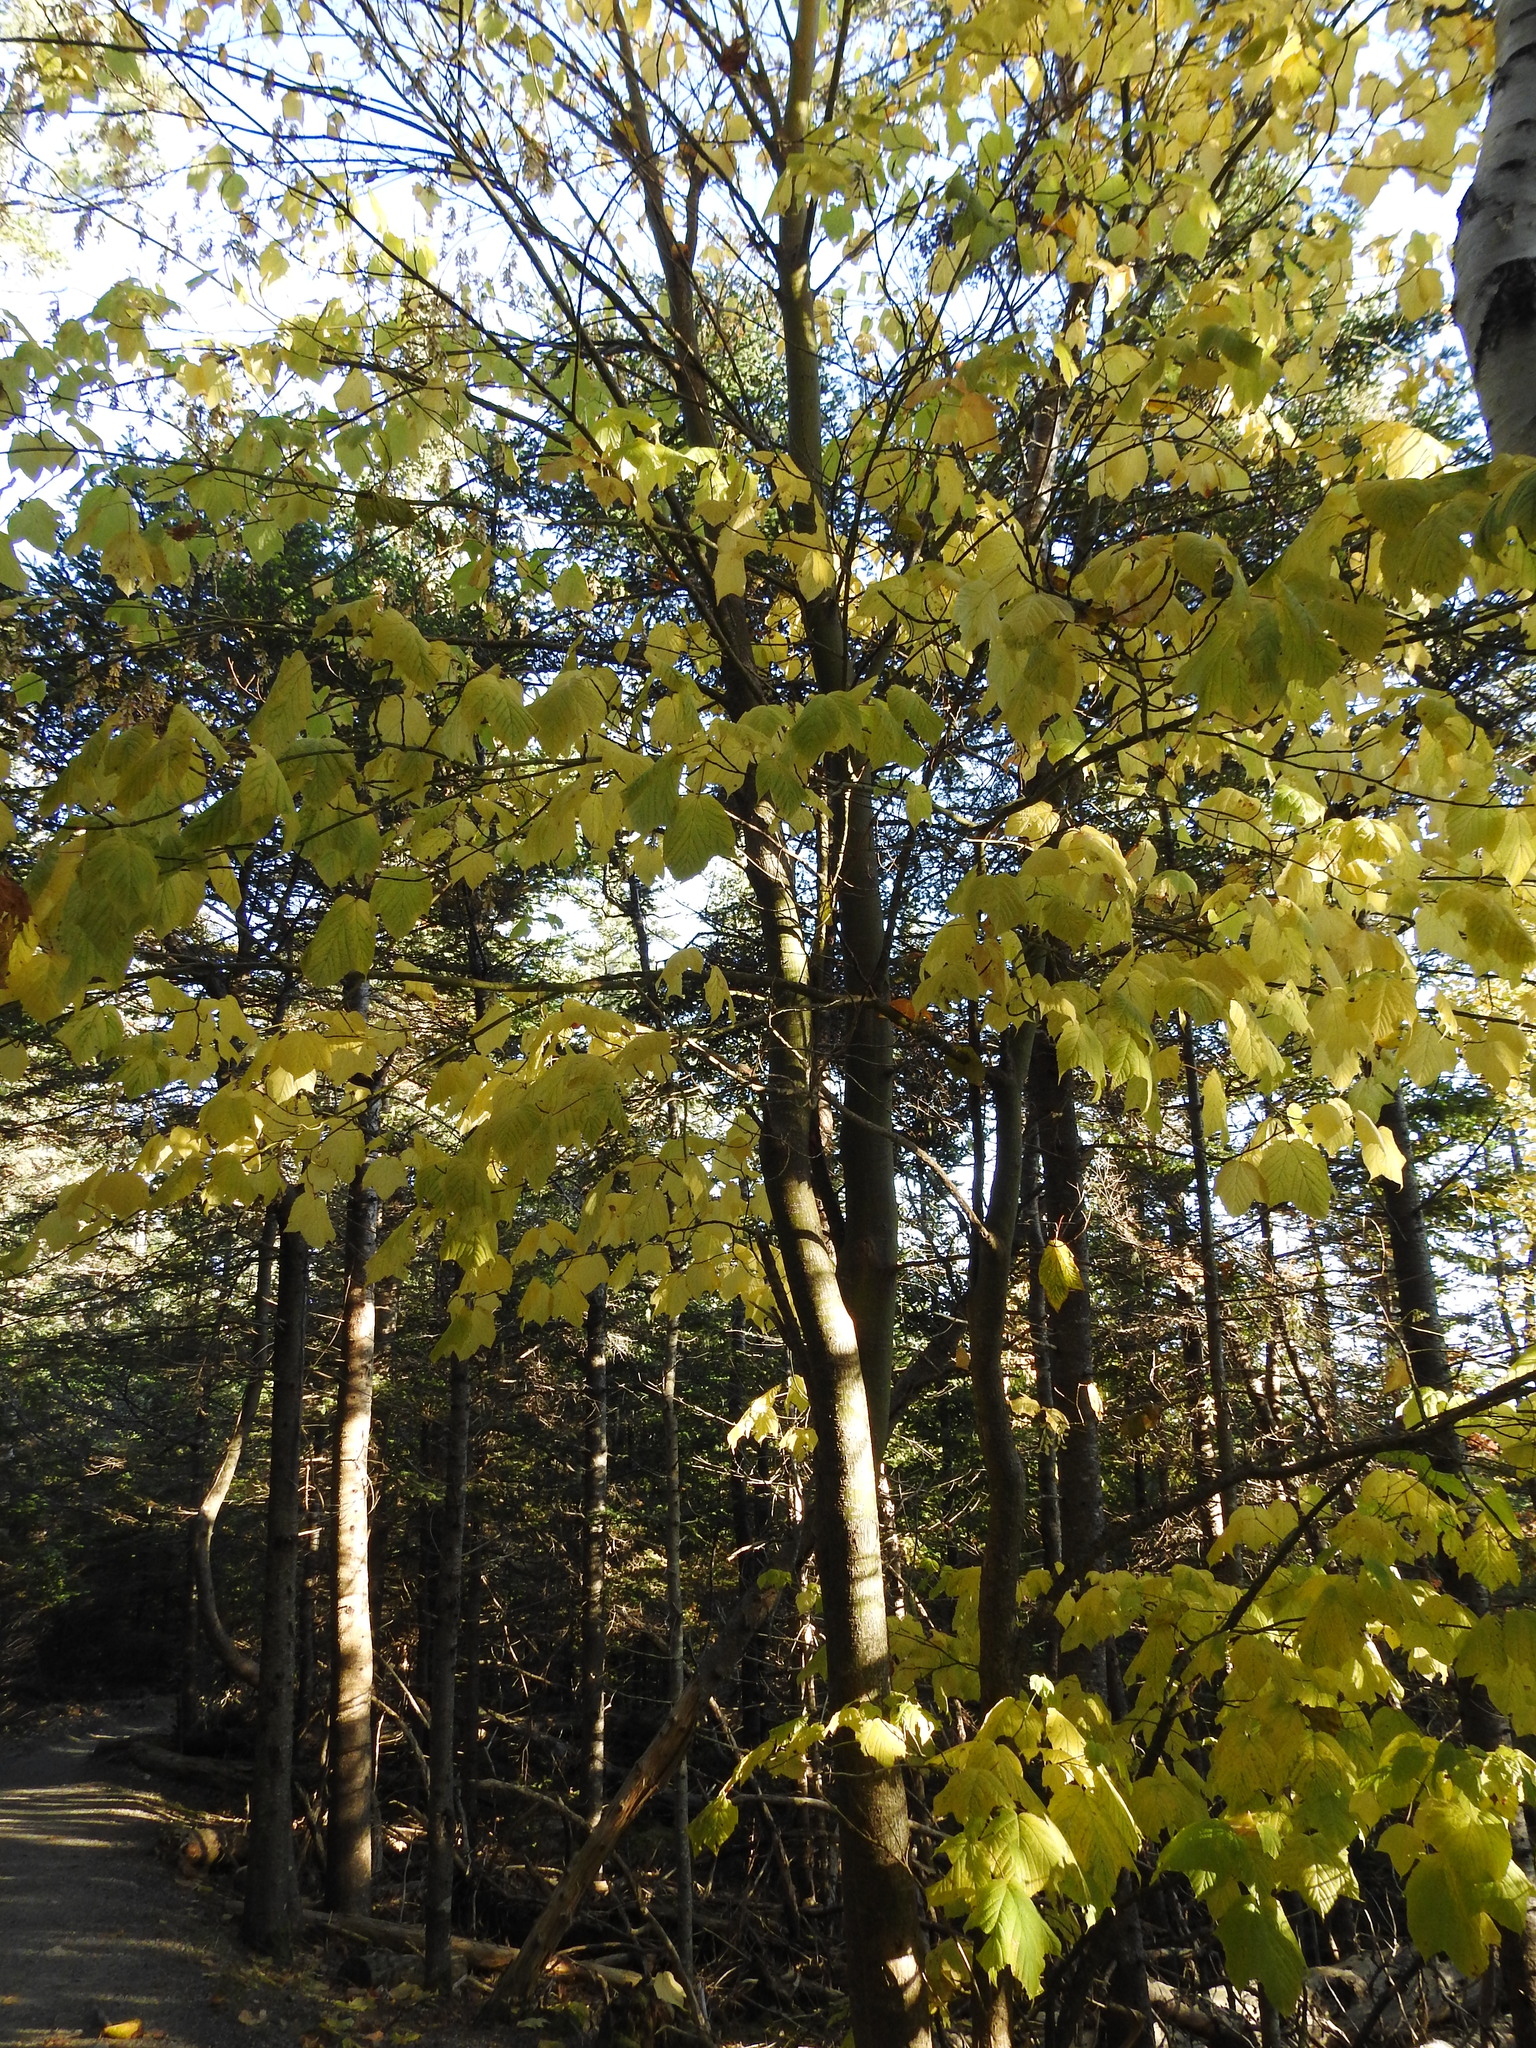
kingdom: Plantae
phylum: Tracheophyta
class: Magnoliopsida
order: Sapindales
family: Sapindaceae
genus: Acer
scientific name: Acer pensylvanicum
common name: Moosewood
